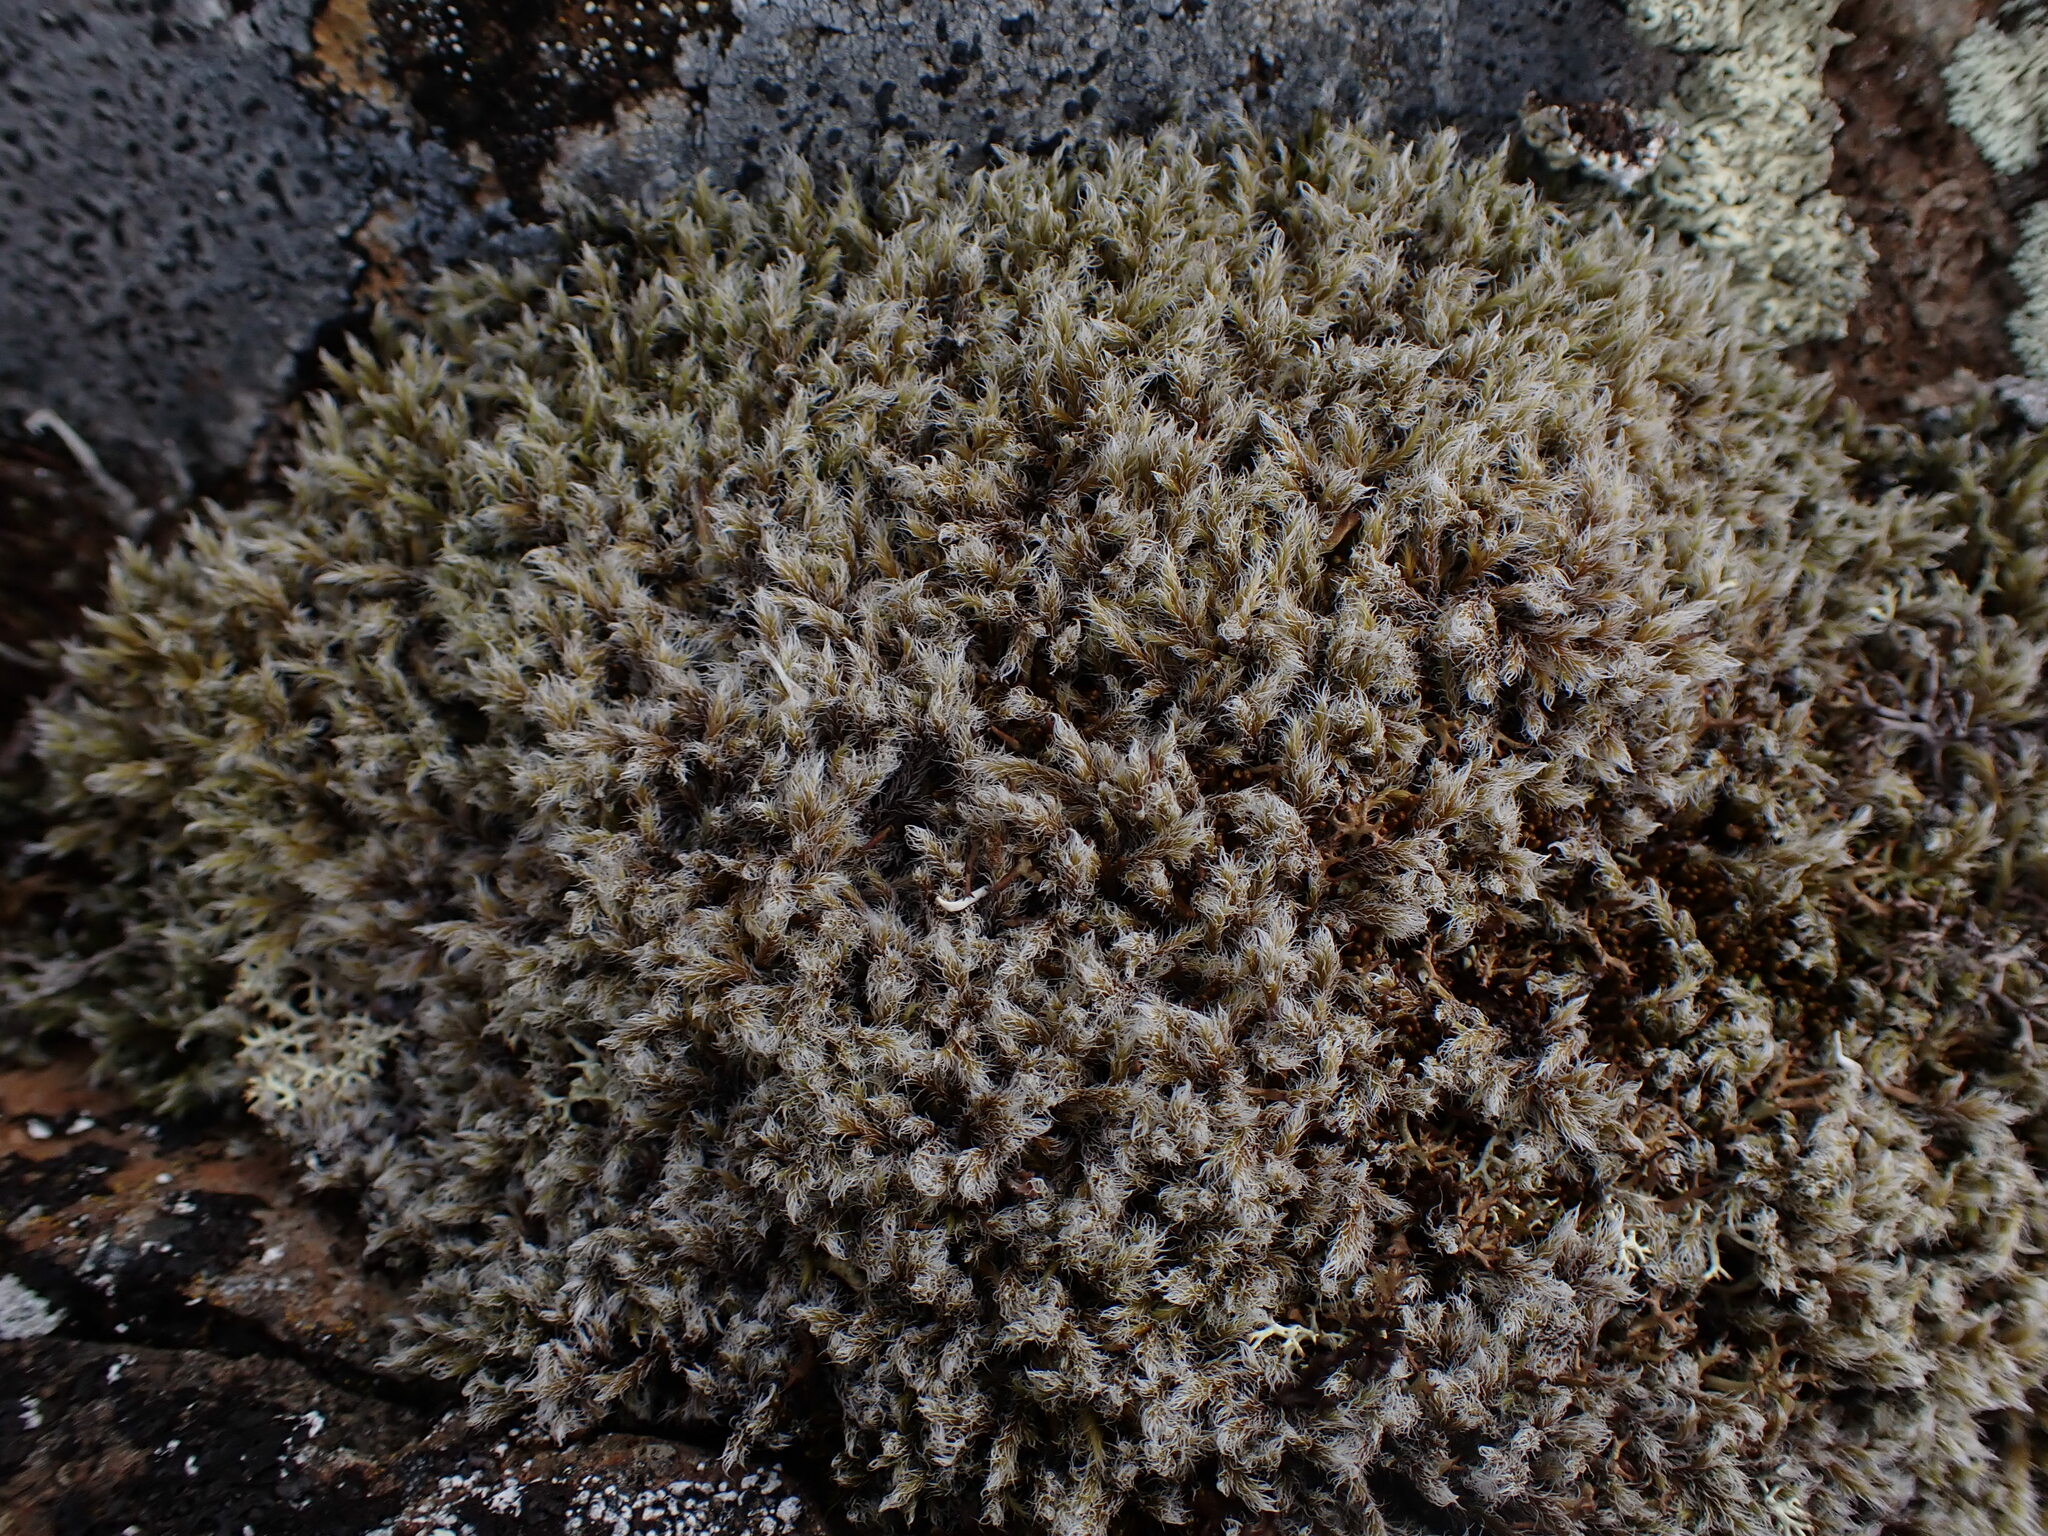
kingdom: Plantae
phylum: Bryophyta
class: Bryopsida
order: Grimmiales
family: Grimmiaceae
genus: Racomitrium
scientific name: Racomitrium lanuginosum
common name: Hoary rock moss
